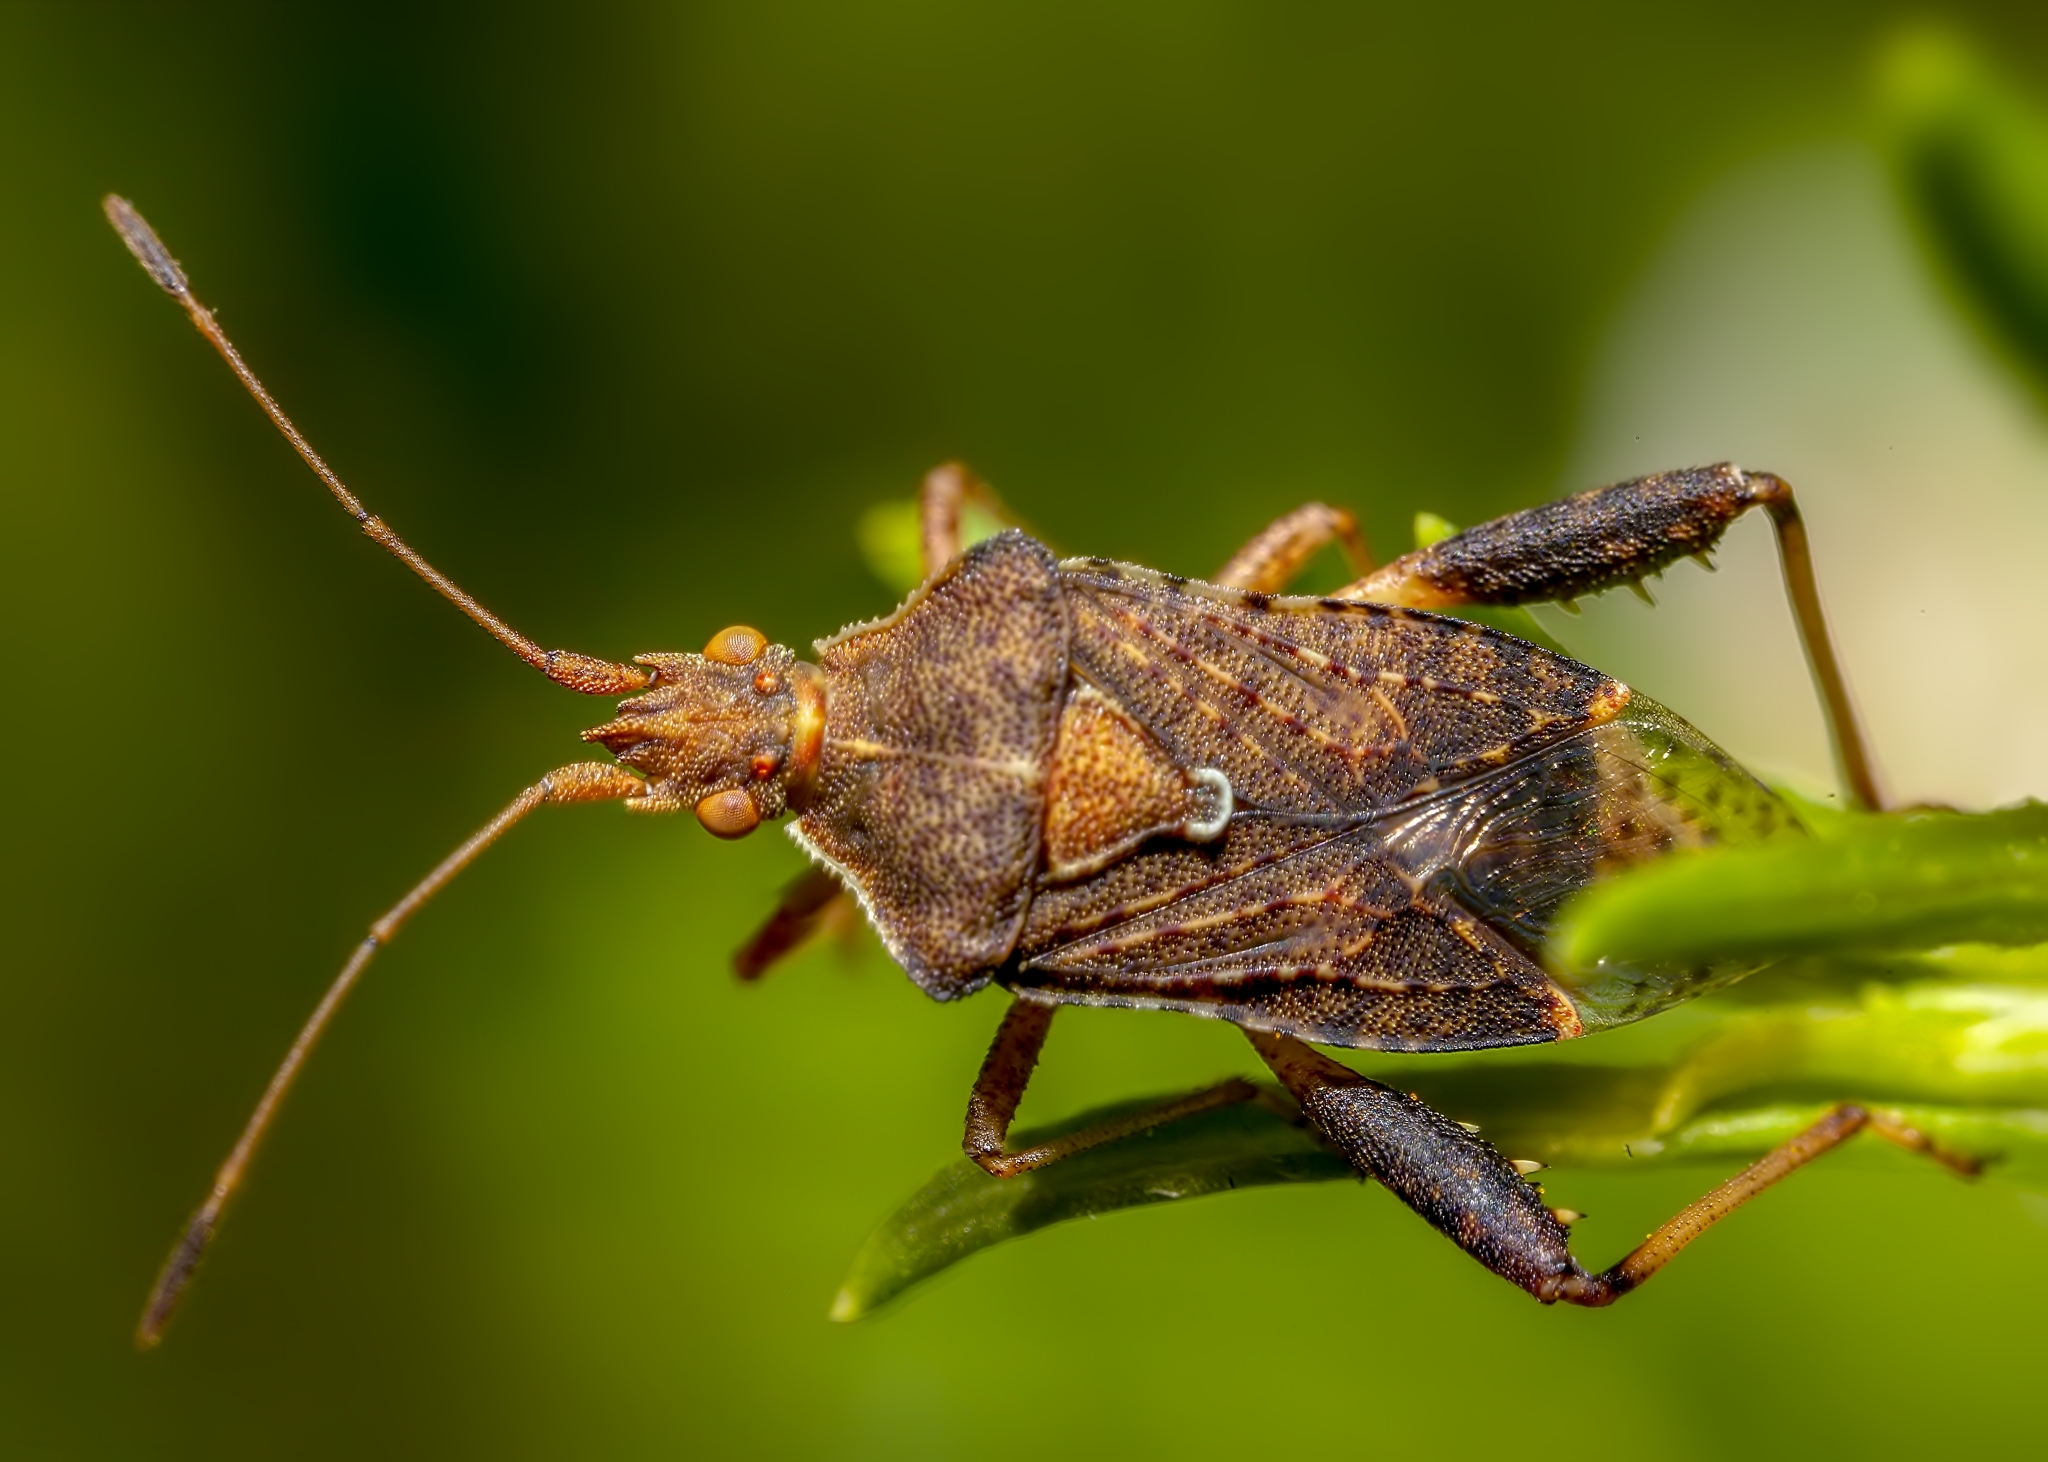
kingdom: Animalia
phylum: Arthropoda
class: Insecta
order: Hemiptera
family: Rhopalidae
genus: Harmostes
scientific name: Harmostes serratus
